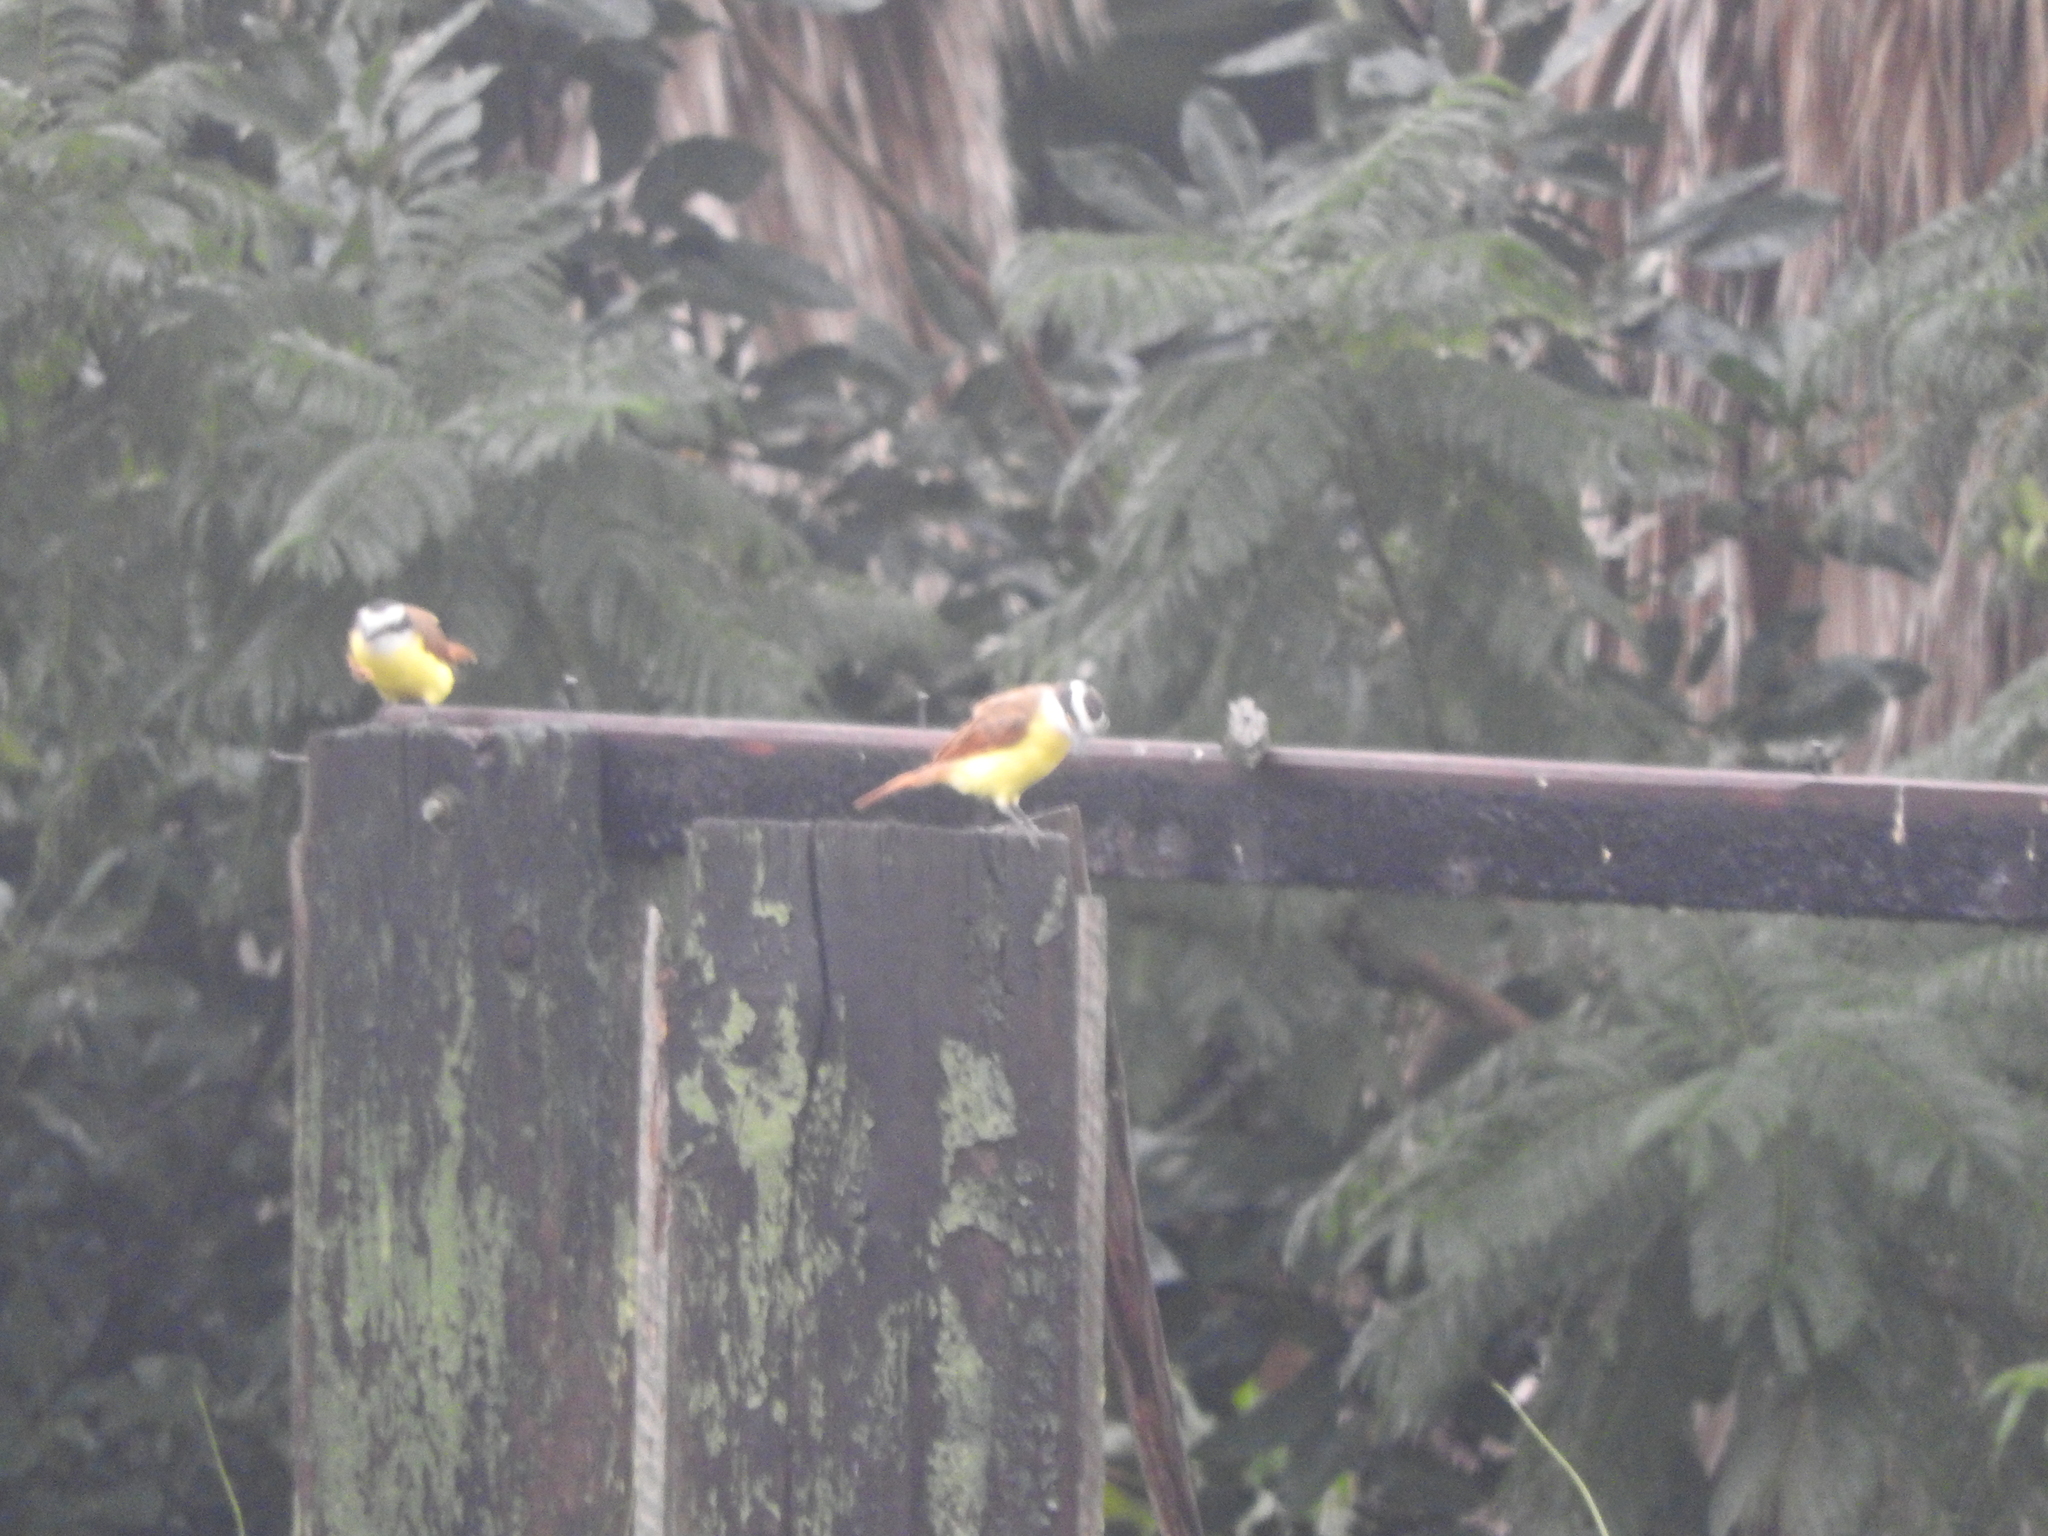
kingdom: Animalia
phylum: Chordata
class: Aves
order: Passeriformes
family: Tyrannidae
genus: Pitangus
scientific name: Pitangus sulphuratus
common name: Great kiskadee
